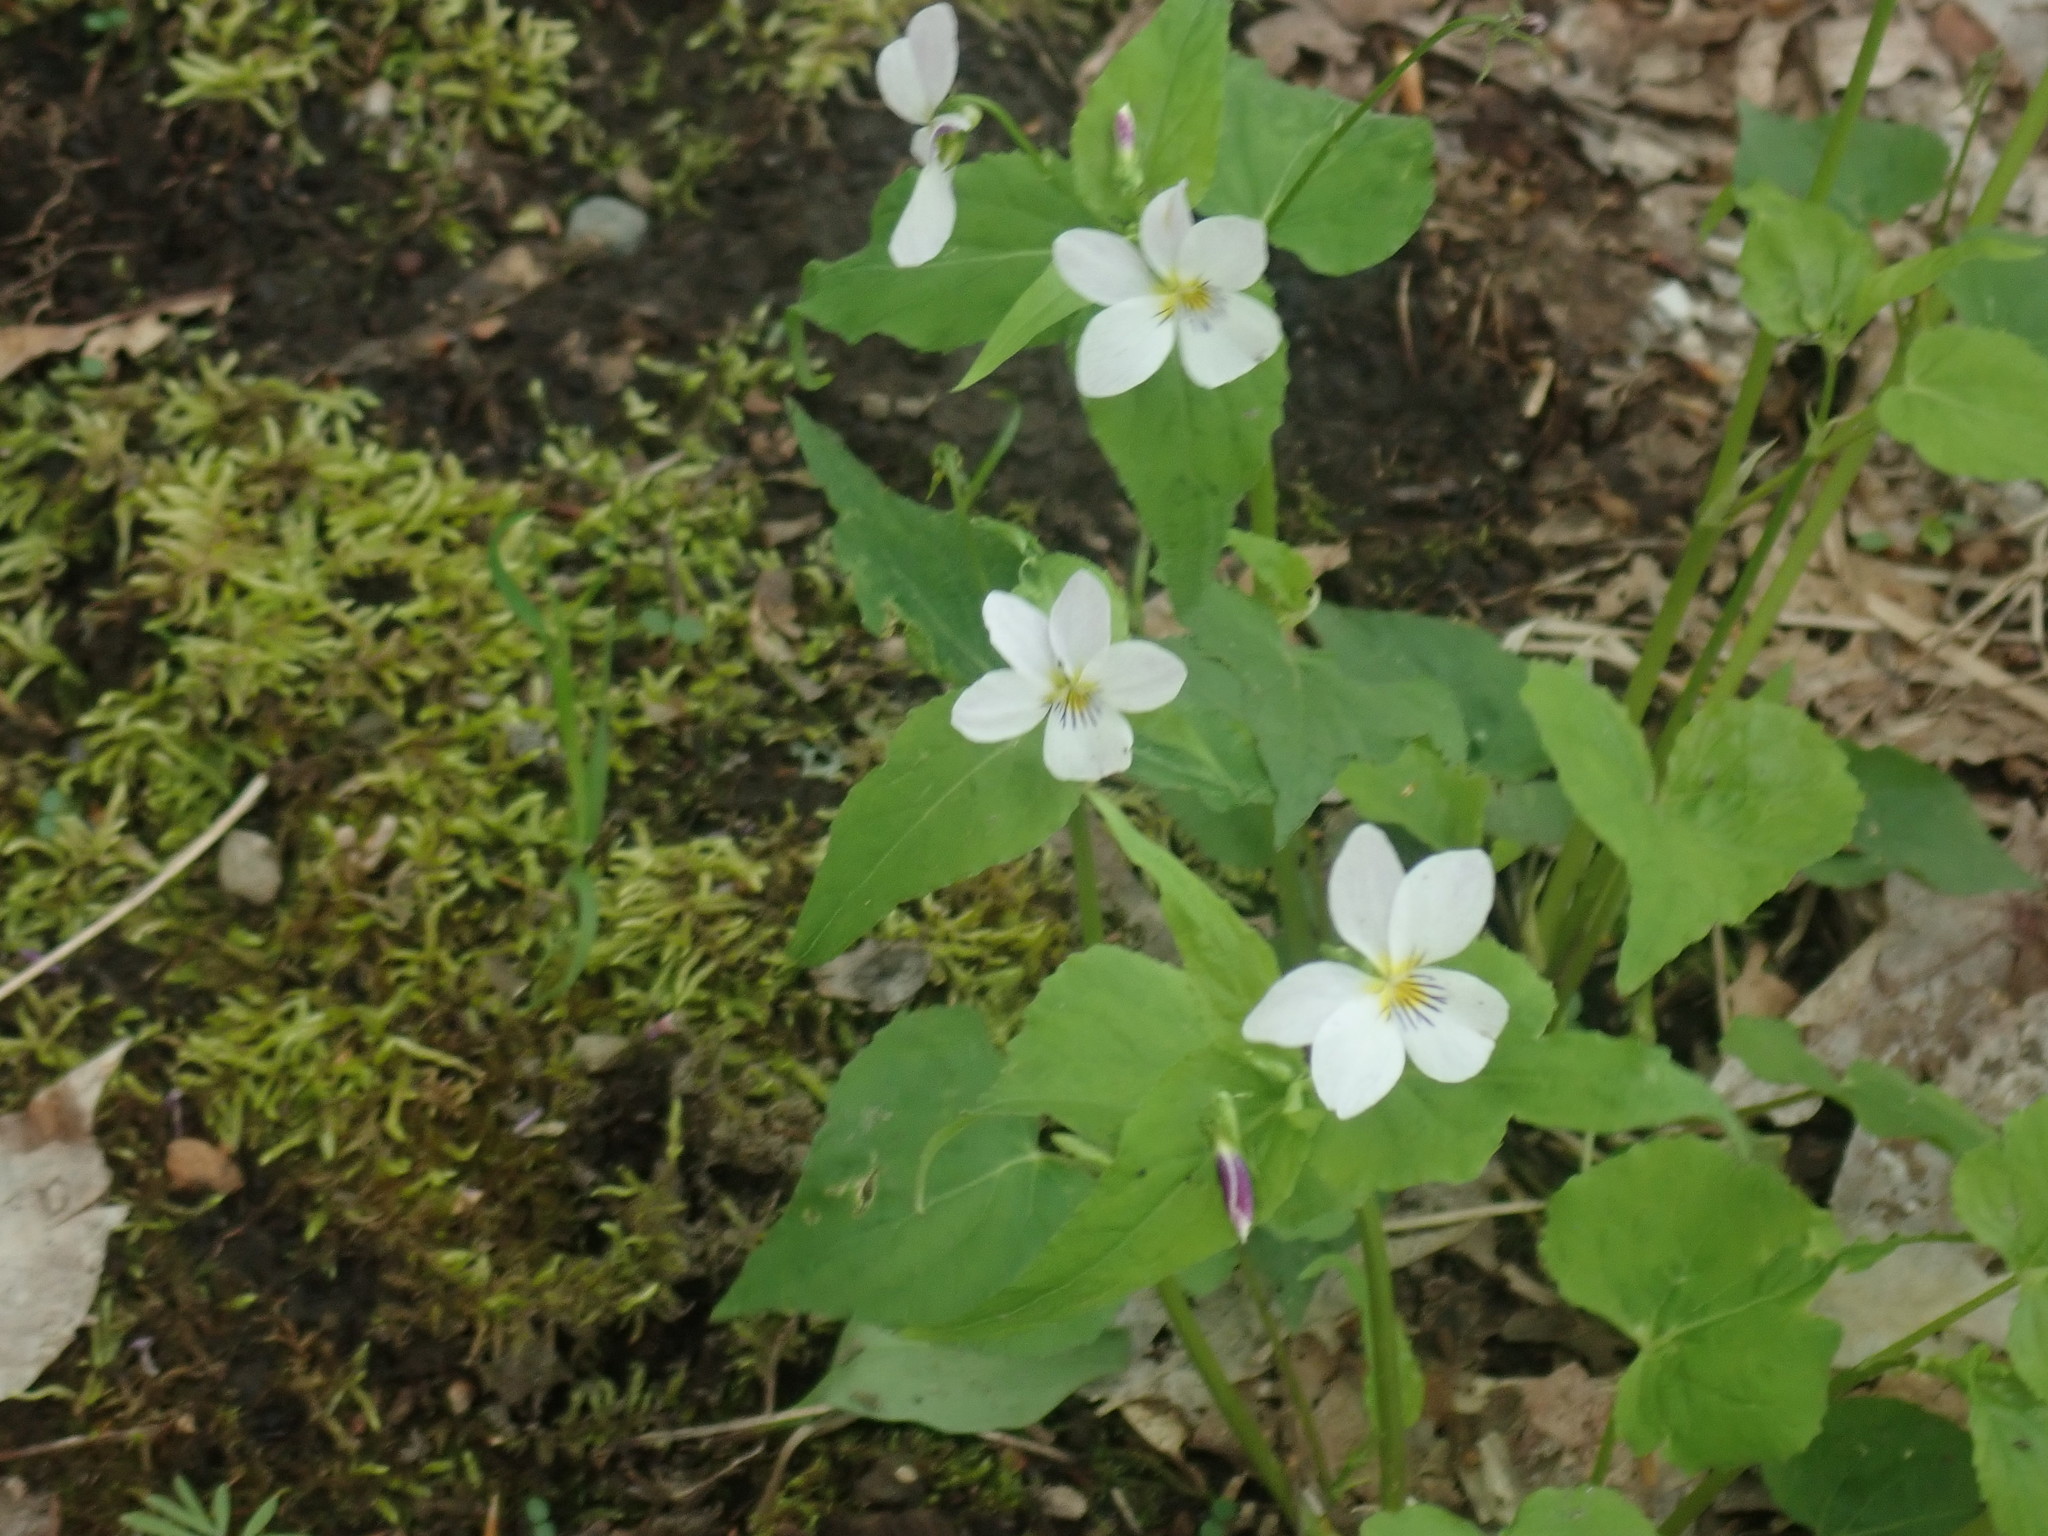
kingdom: Plantae
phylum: Tracheophyta
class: Magnoliopsida
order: Malpighiales
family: Violaceae
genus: Viola
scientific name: Viola canadensis
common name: Canada violet
